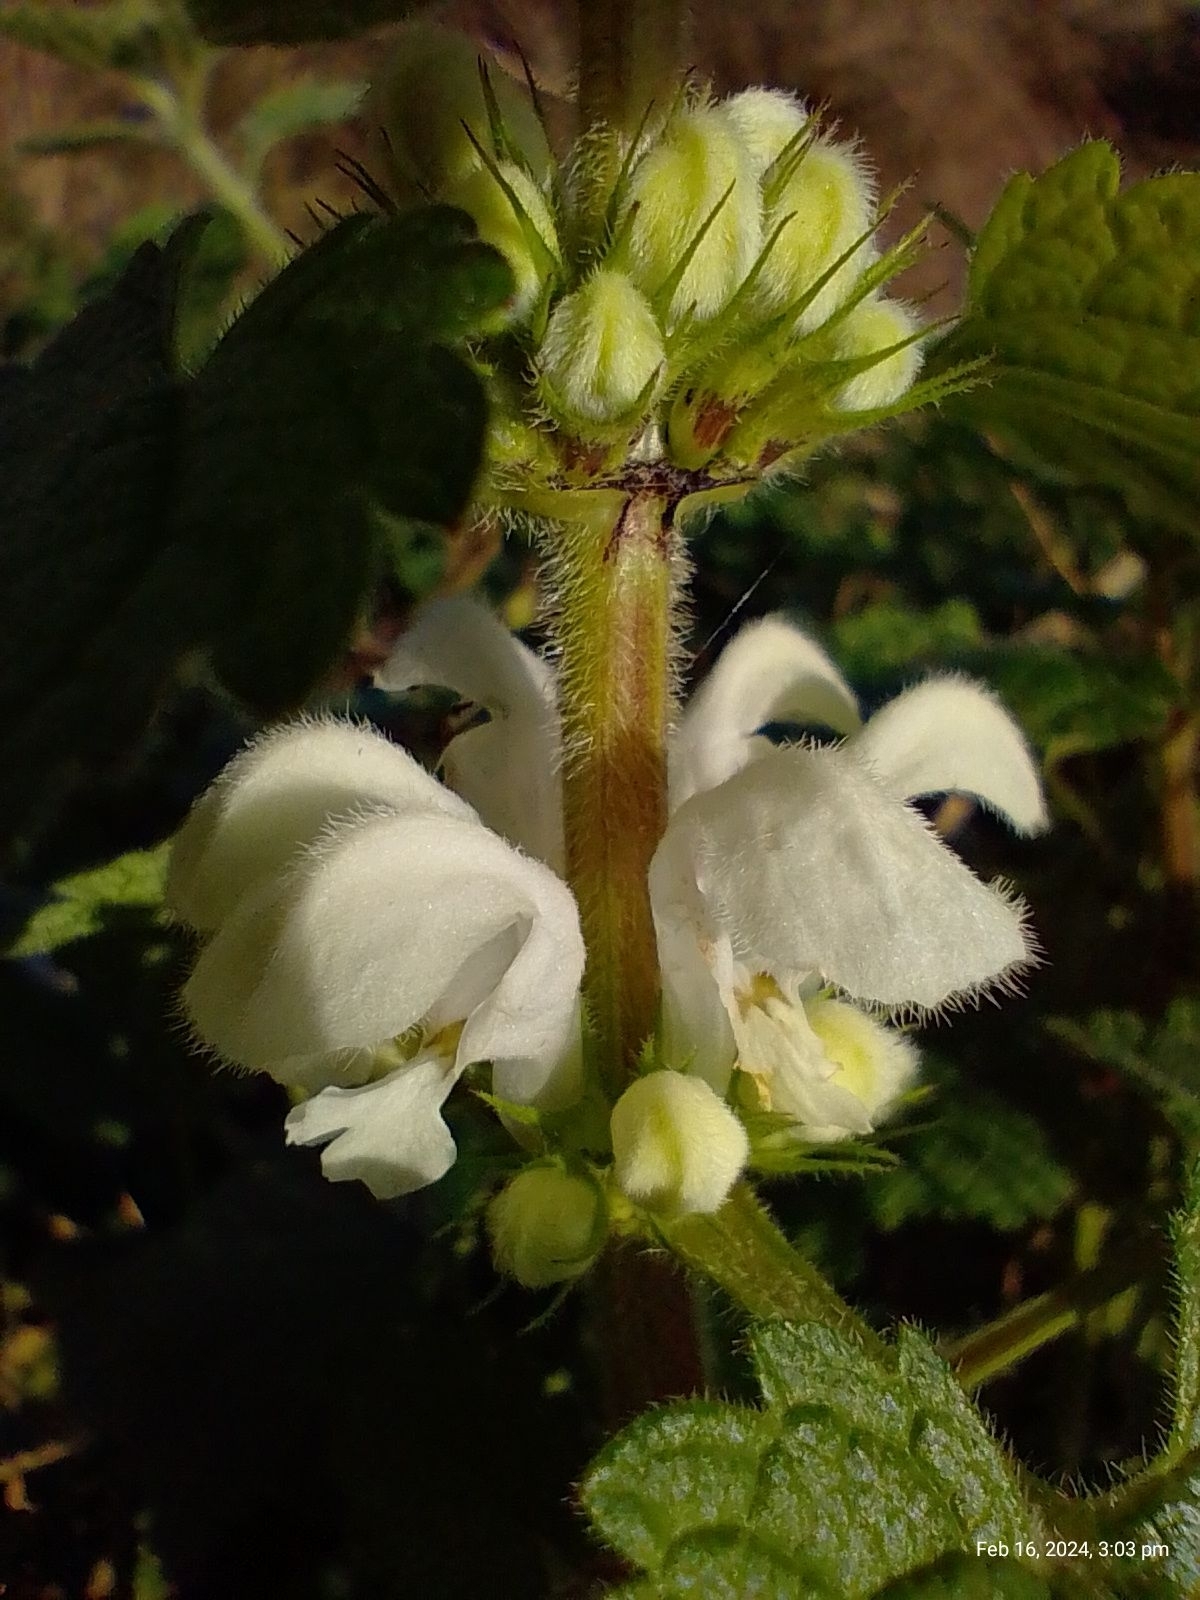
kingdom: Plantae
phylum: Tracheophyta
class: Magnoliopsida
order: Lamiales
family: Lamiaceae
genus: Lamium
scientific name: Lamium album
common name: White dead-nettle
